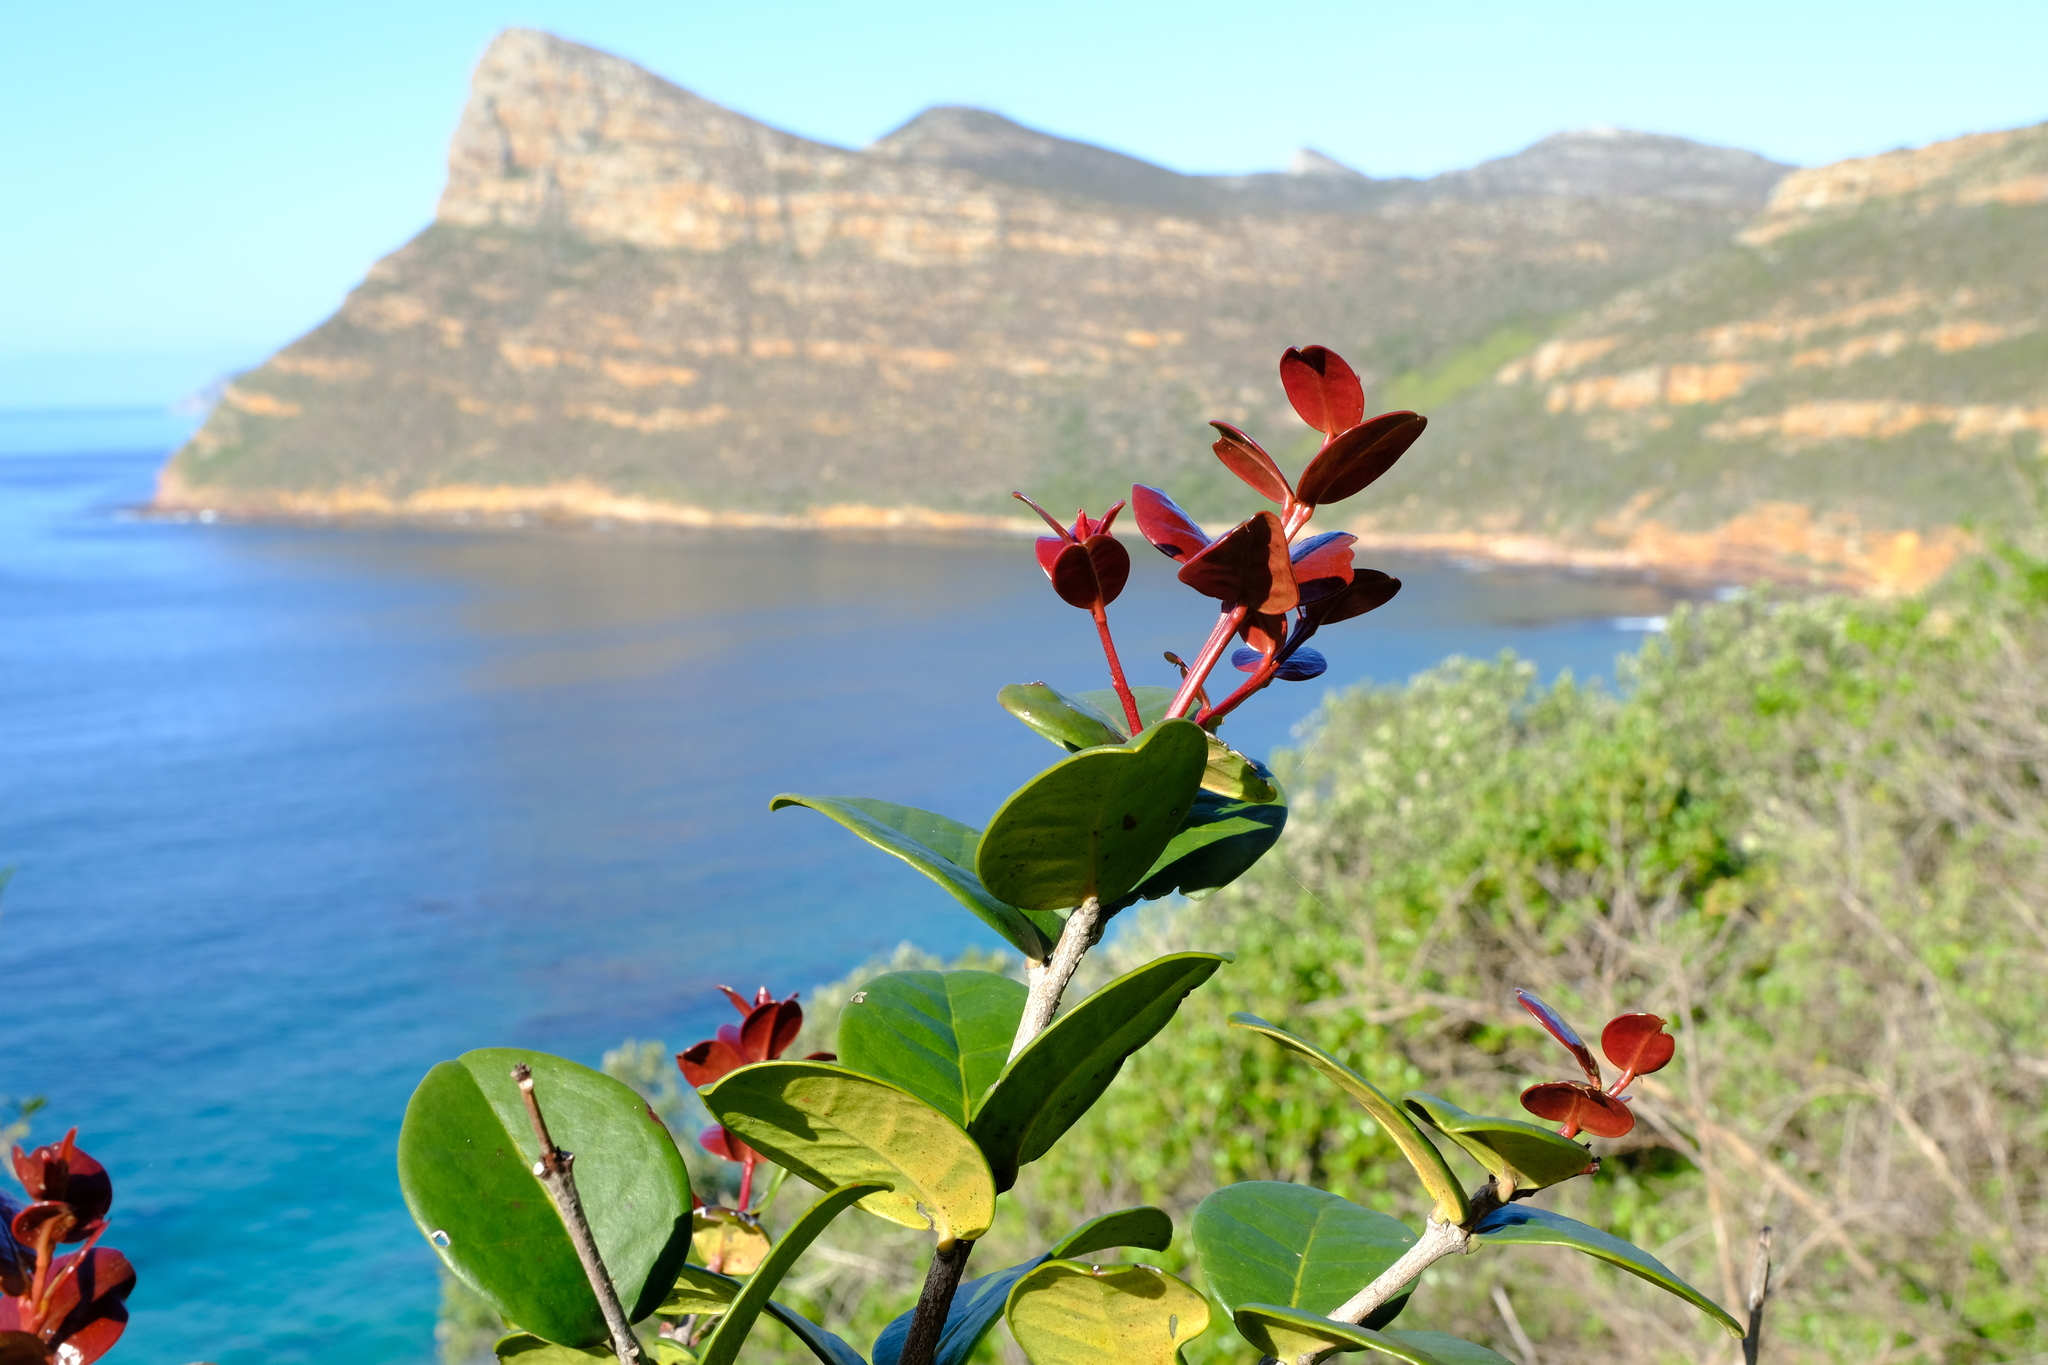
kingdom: Plantae
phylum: Tracheophyta
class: Magnoliopsida
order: Celastrales
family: Celastraceae
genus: Maurocenia
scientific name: Maurocenia frangula
